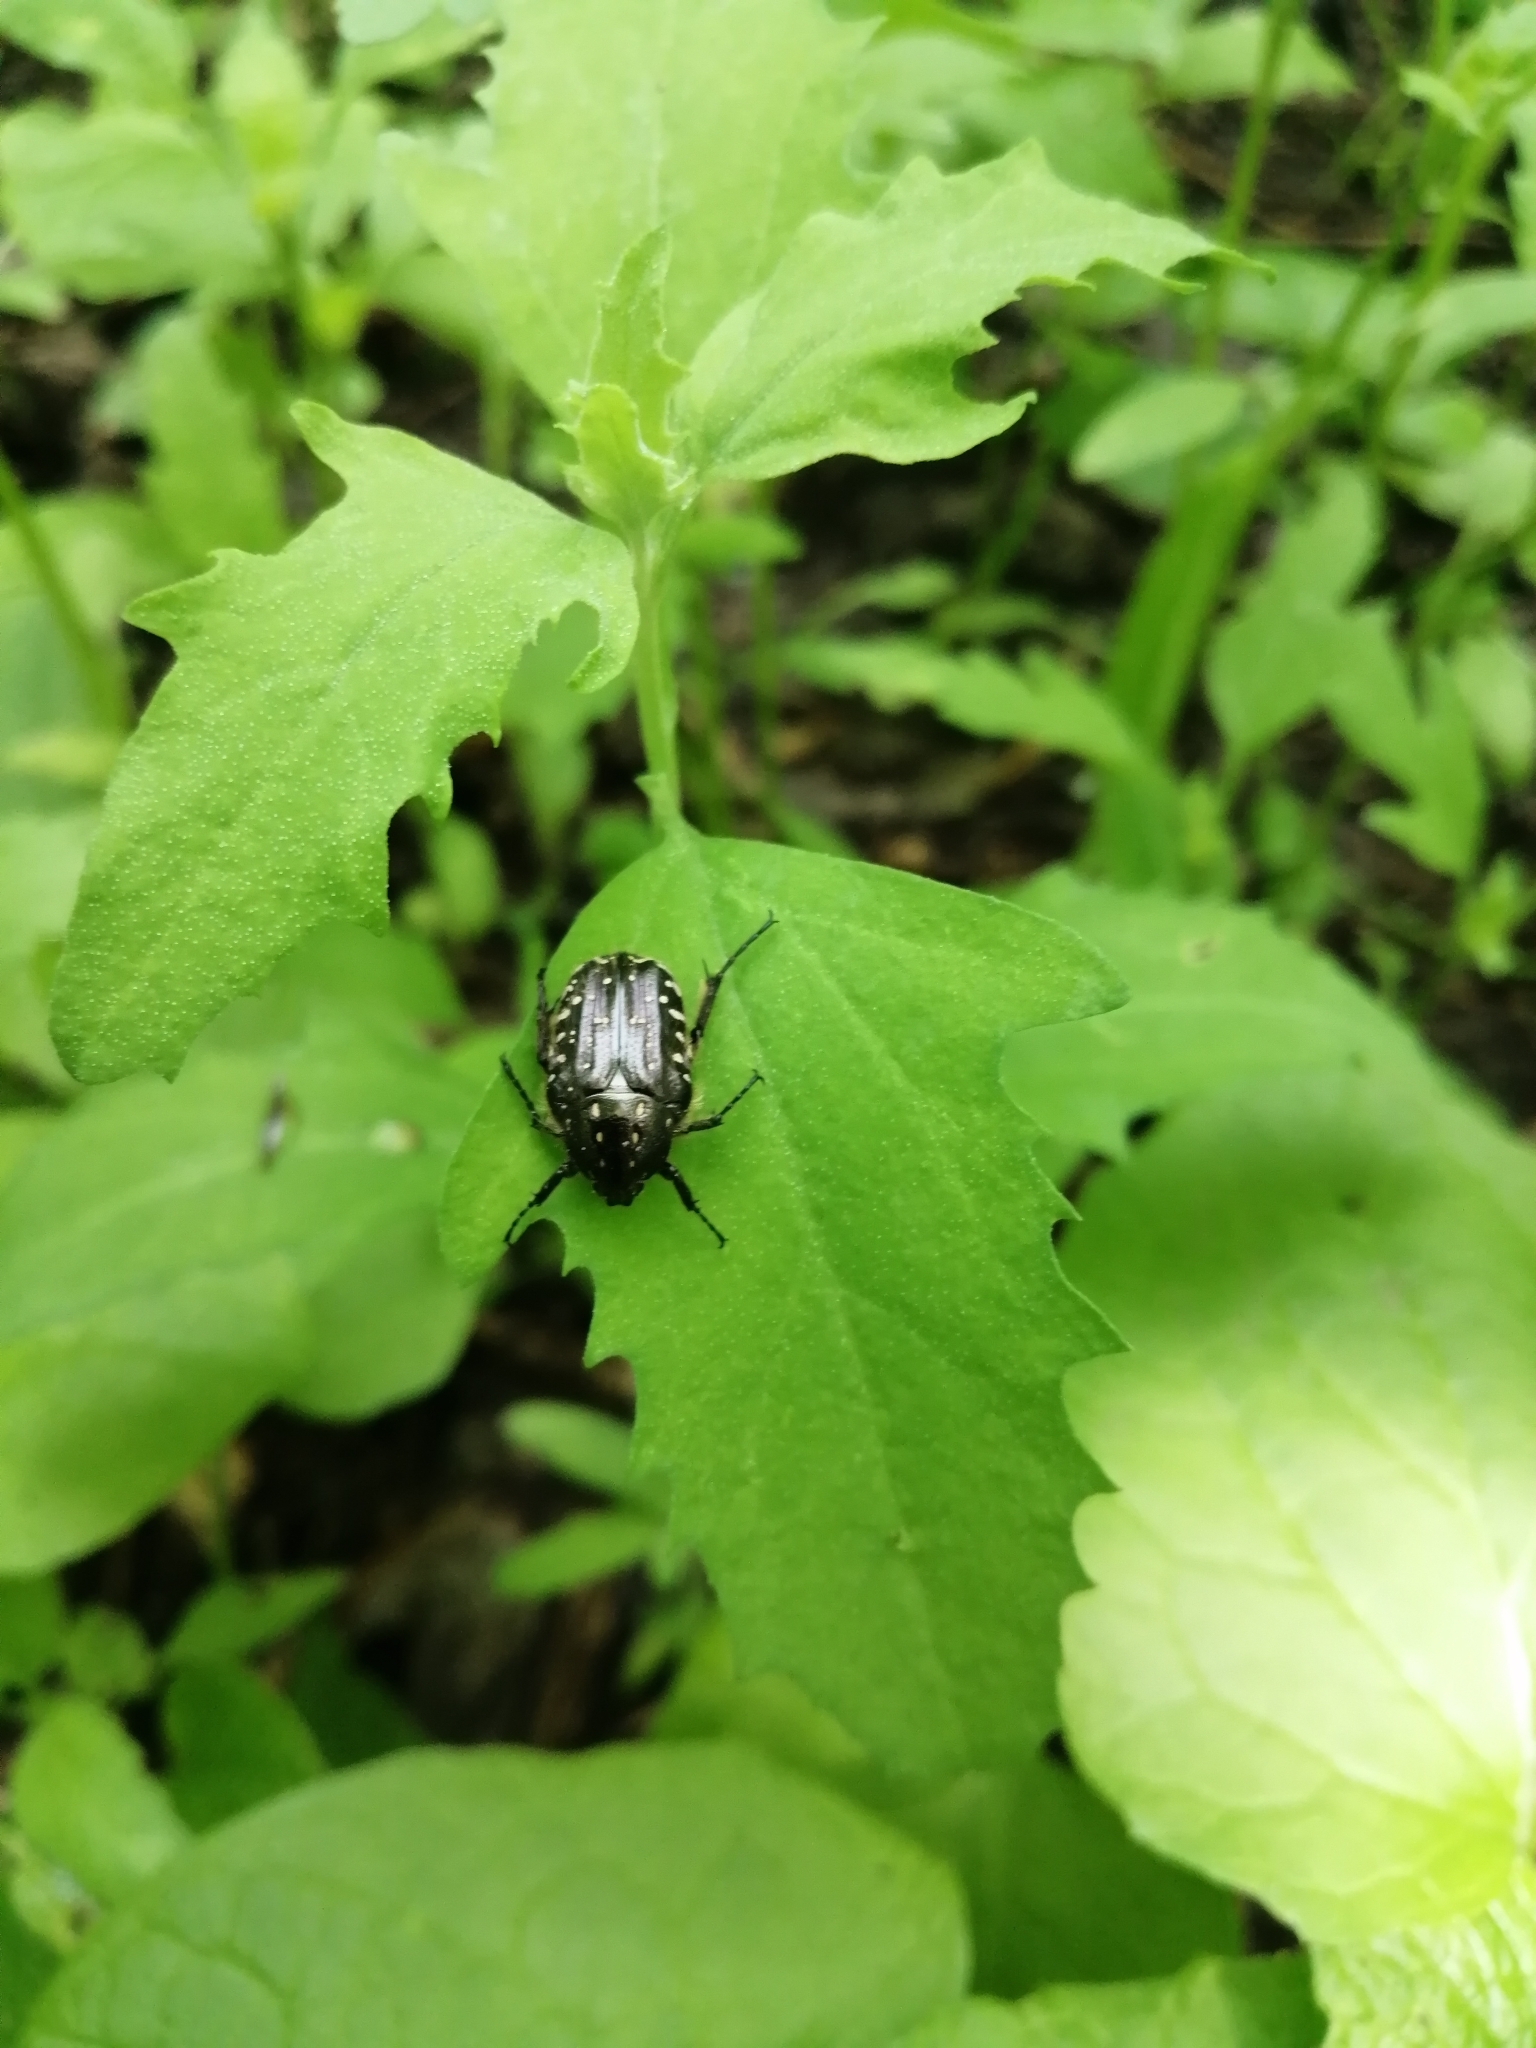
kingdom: Animalia
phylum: Arthropoda
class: Insecta
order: Coleoptera
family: Scarabaeidae
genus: Oxythyrea
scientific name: Oxythyrea funesta
